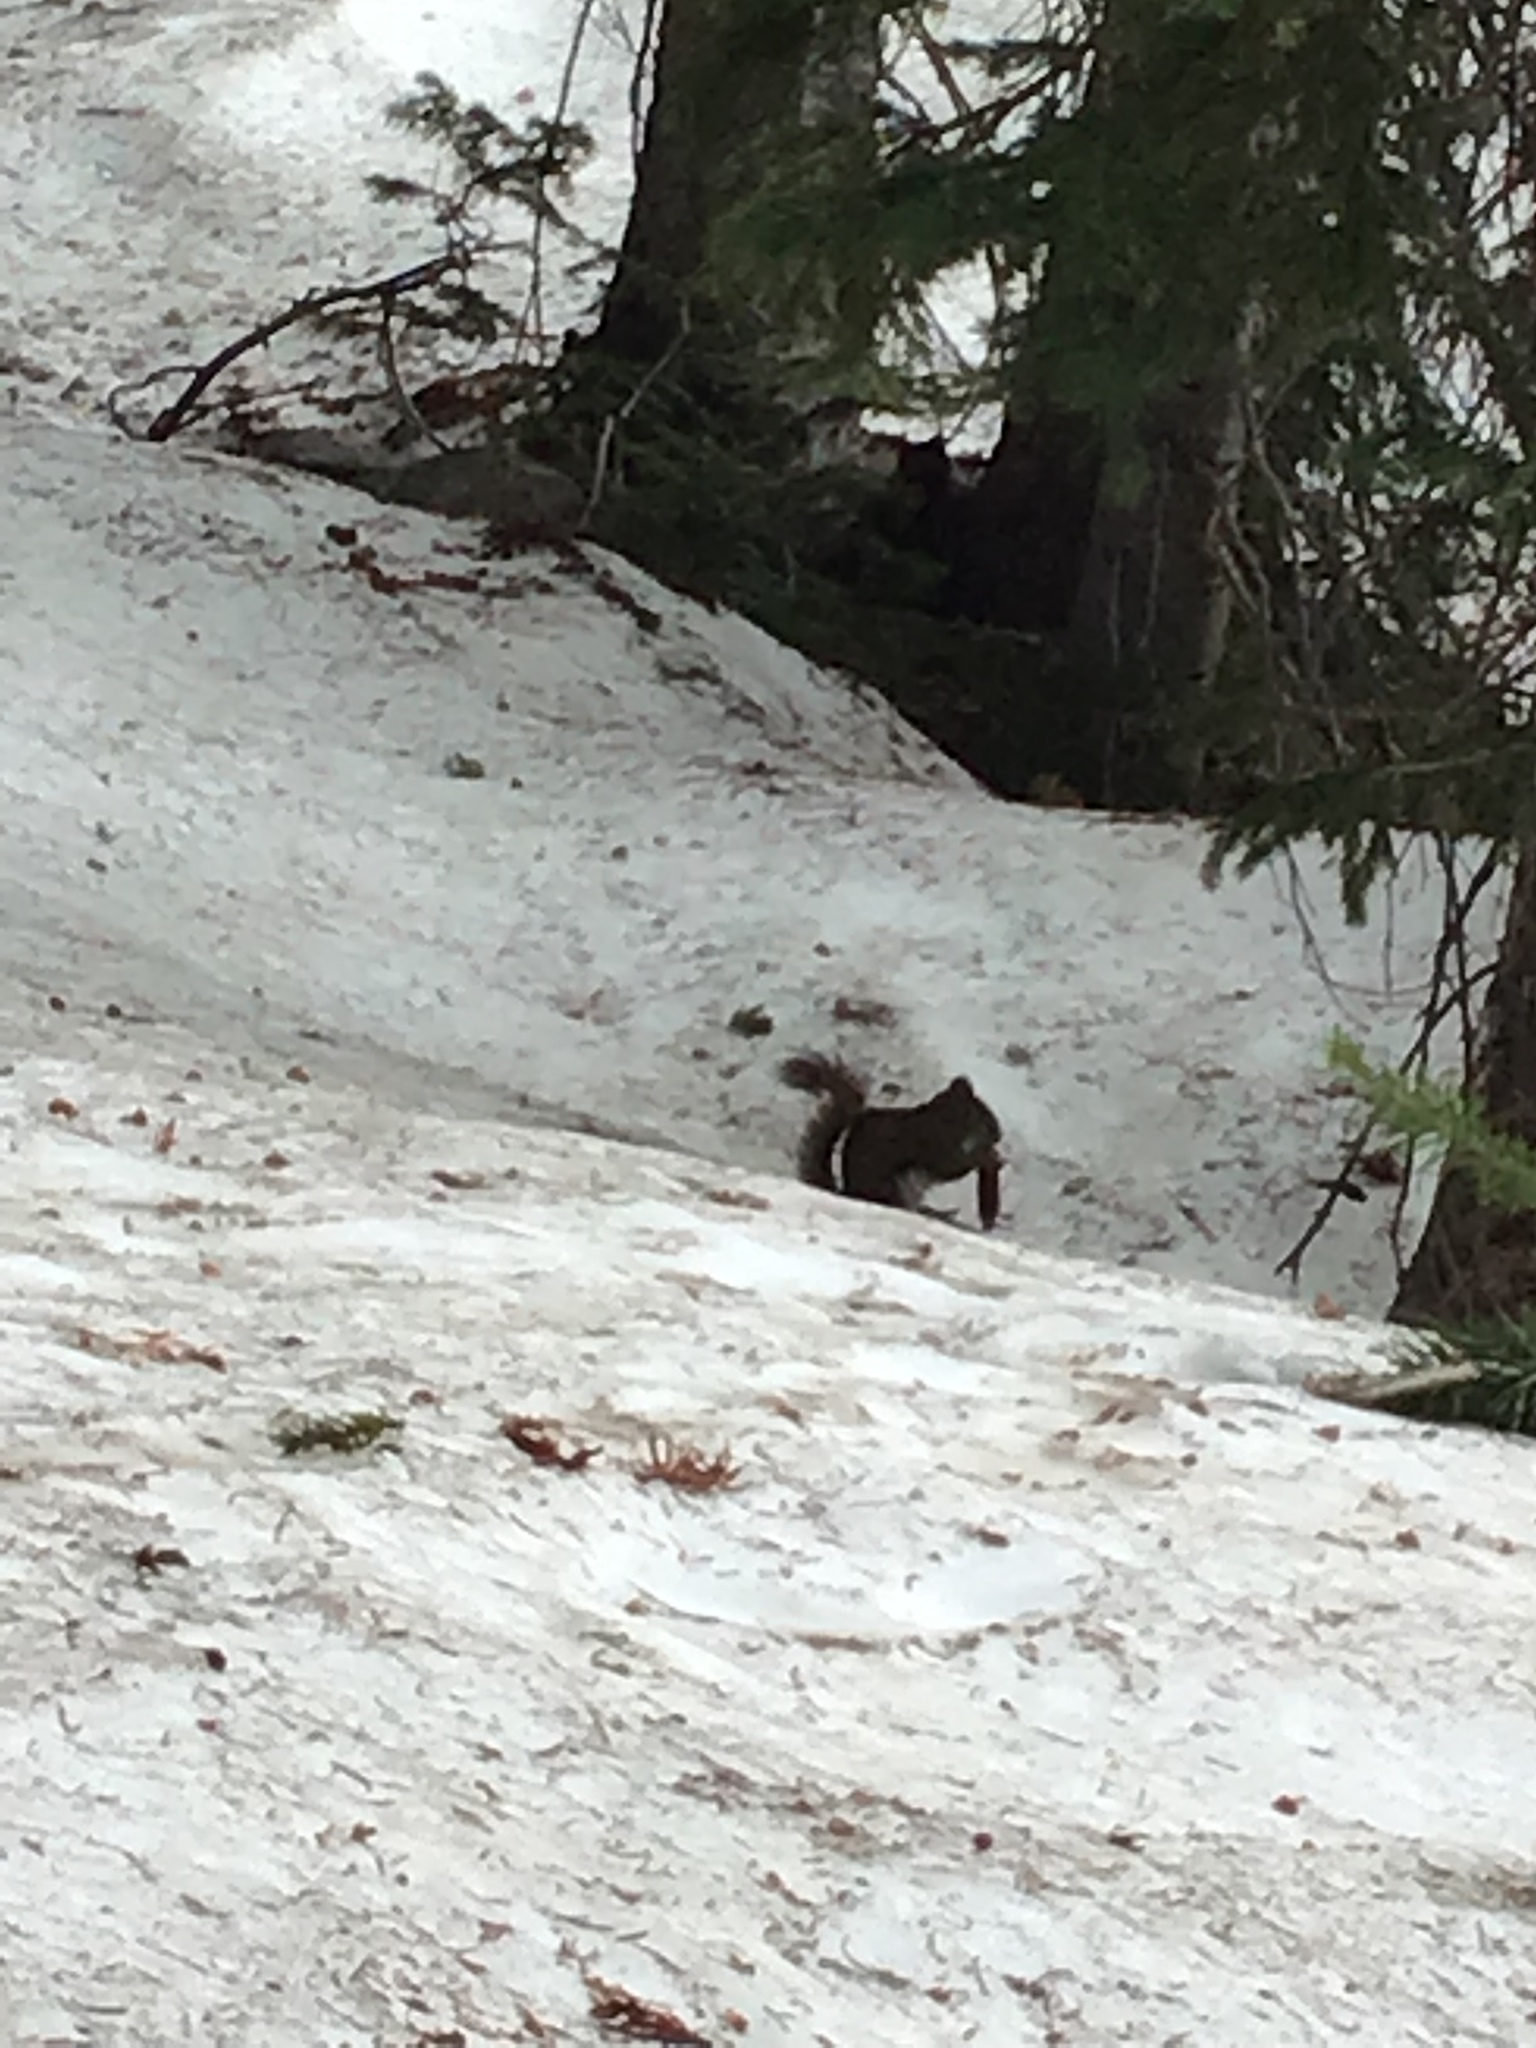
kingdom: Animalia
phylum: Chordata
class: Mammalia
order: Rodentia
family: Sciuridae
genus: Tamiasciurus
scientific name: Tamiasciurus hudsonicus
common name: Red squirrel
